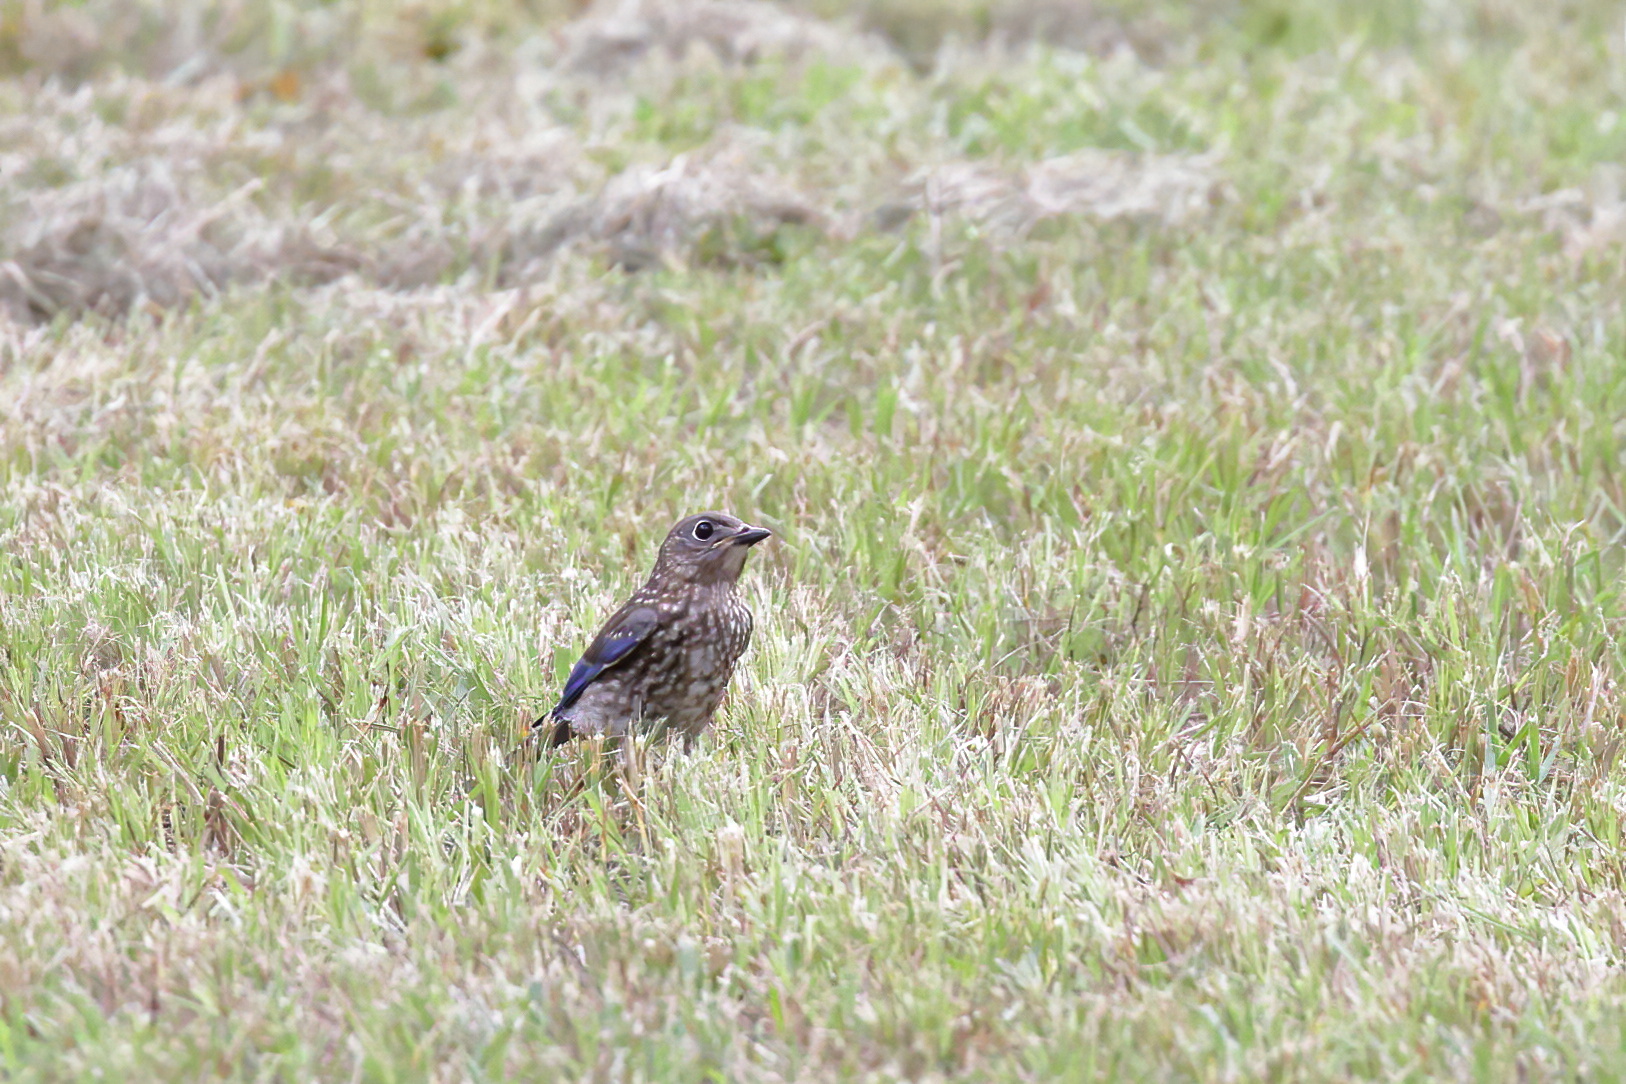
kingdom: Animalia
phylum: Chordata
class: Aves
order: Passeriformes
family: Turdidae
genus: Sialia
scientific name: Sialia sialis
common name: Eastern bluebird
